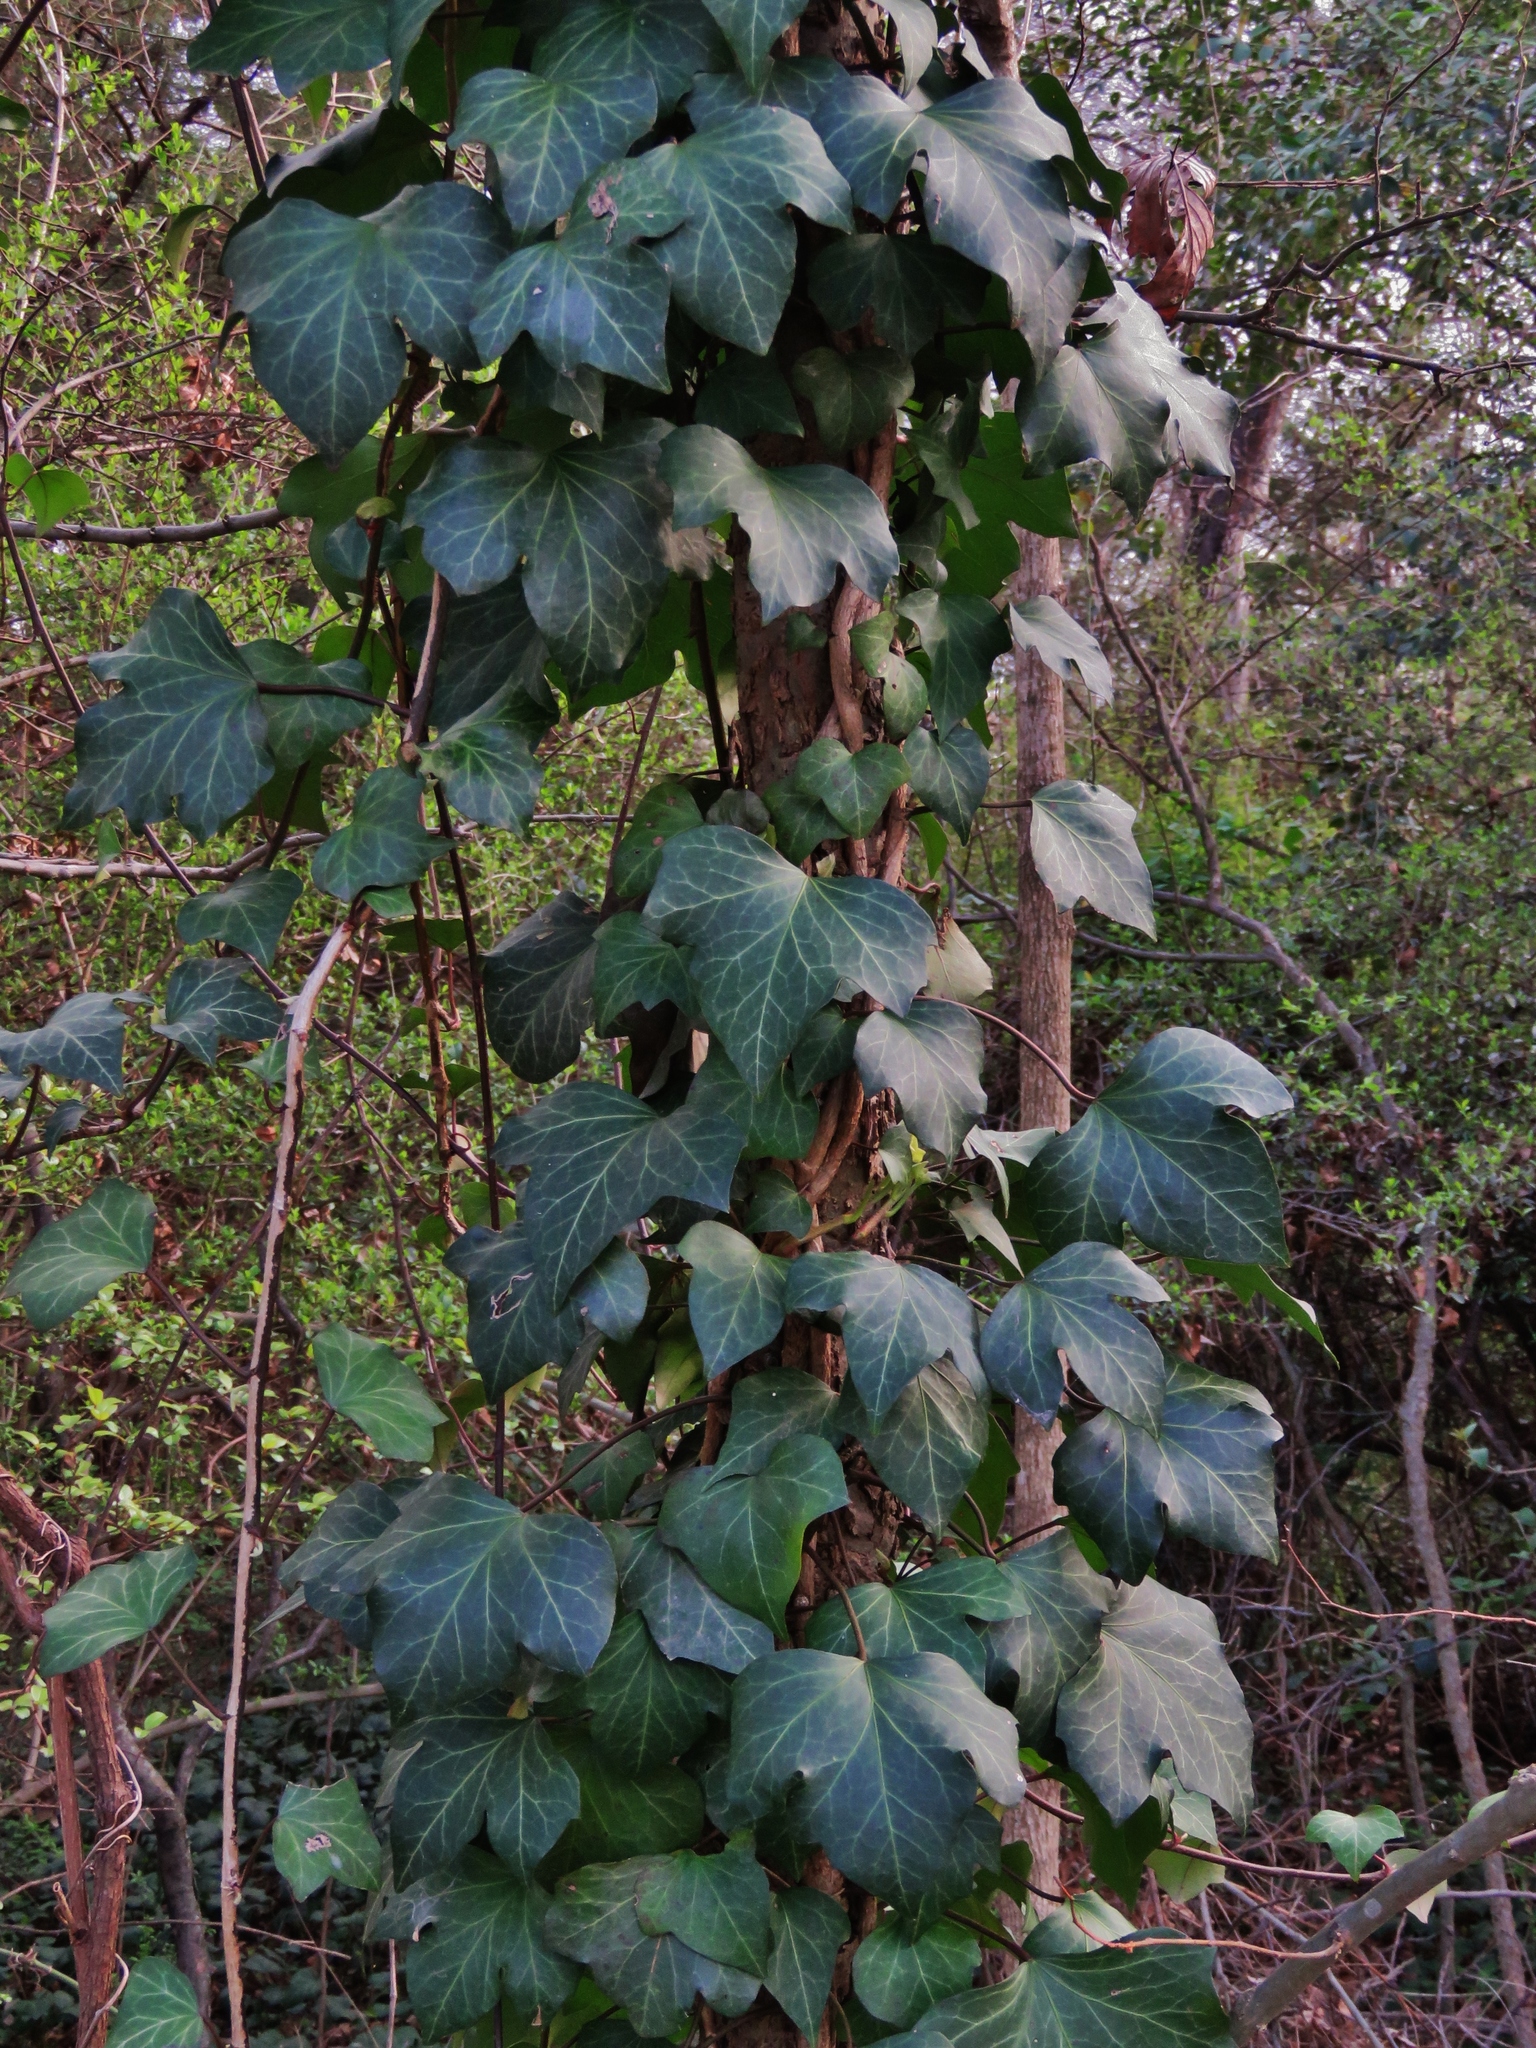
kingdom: Plantae
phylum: Tracheophyta
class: Magnoliopsida
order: Apiales
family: Araliaceae
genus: Hedera
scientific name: Hedera helix
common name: Ivy
